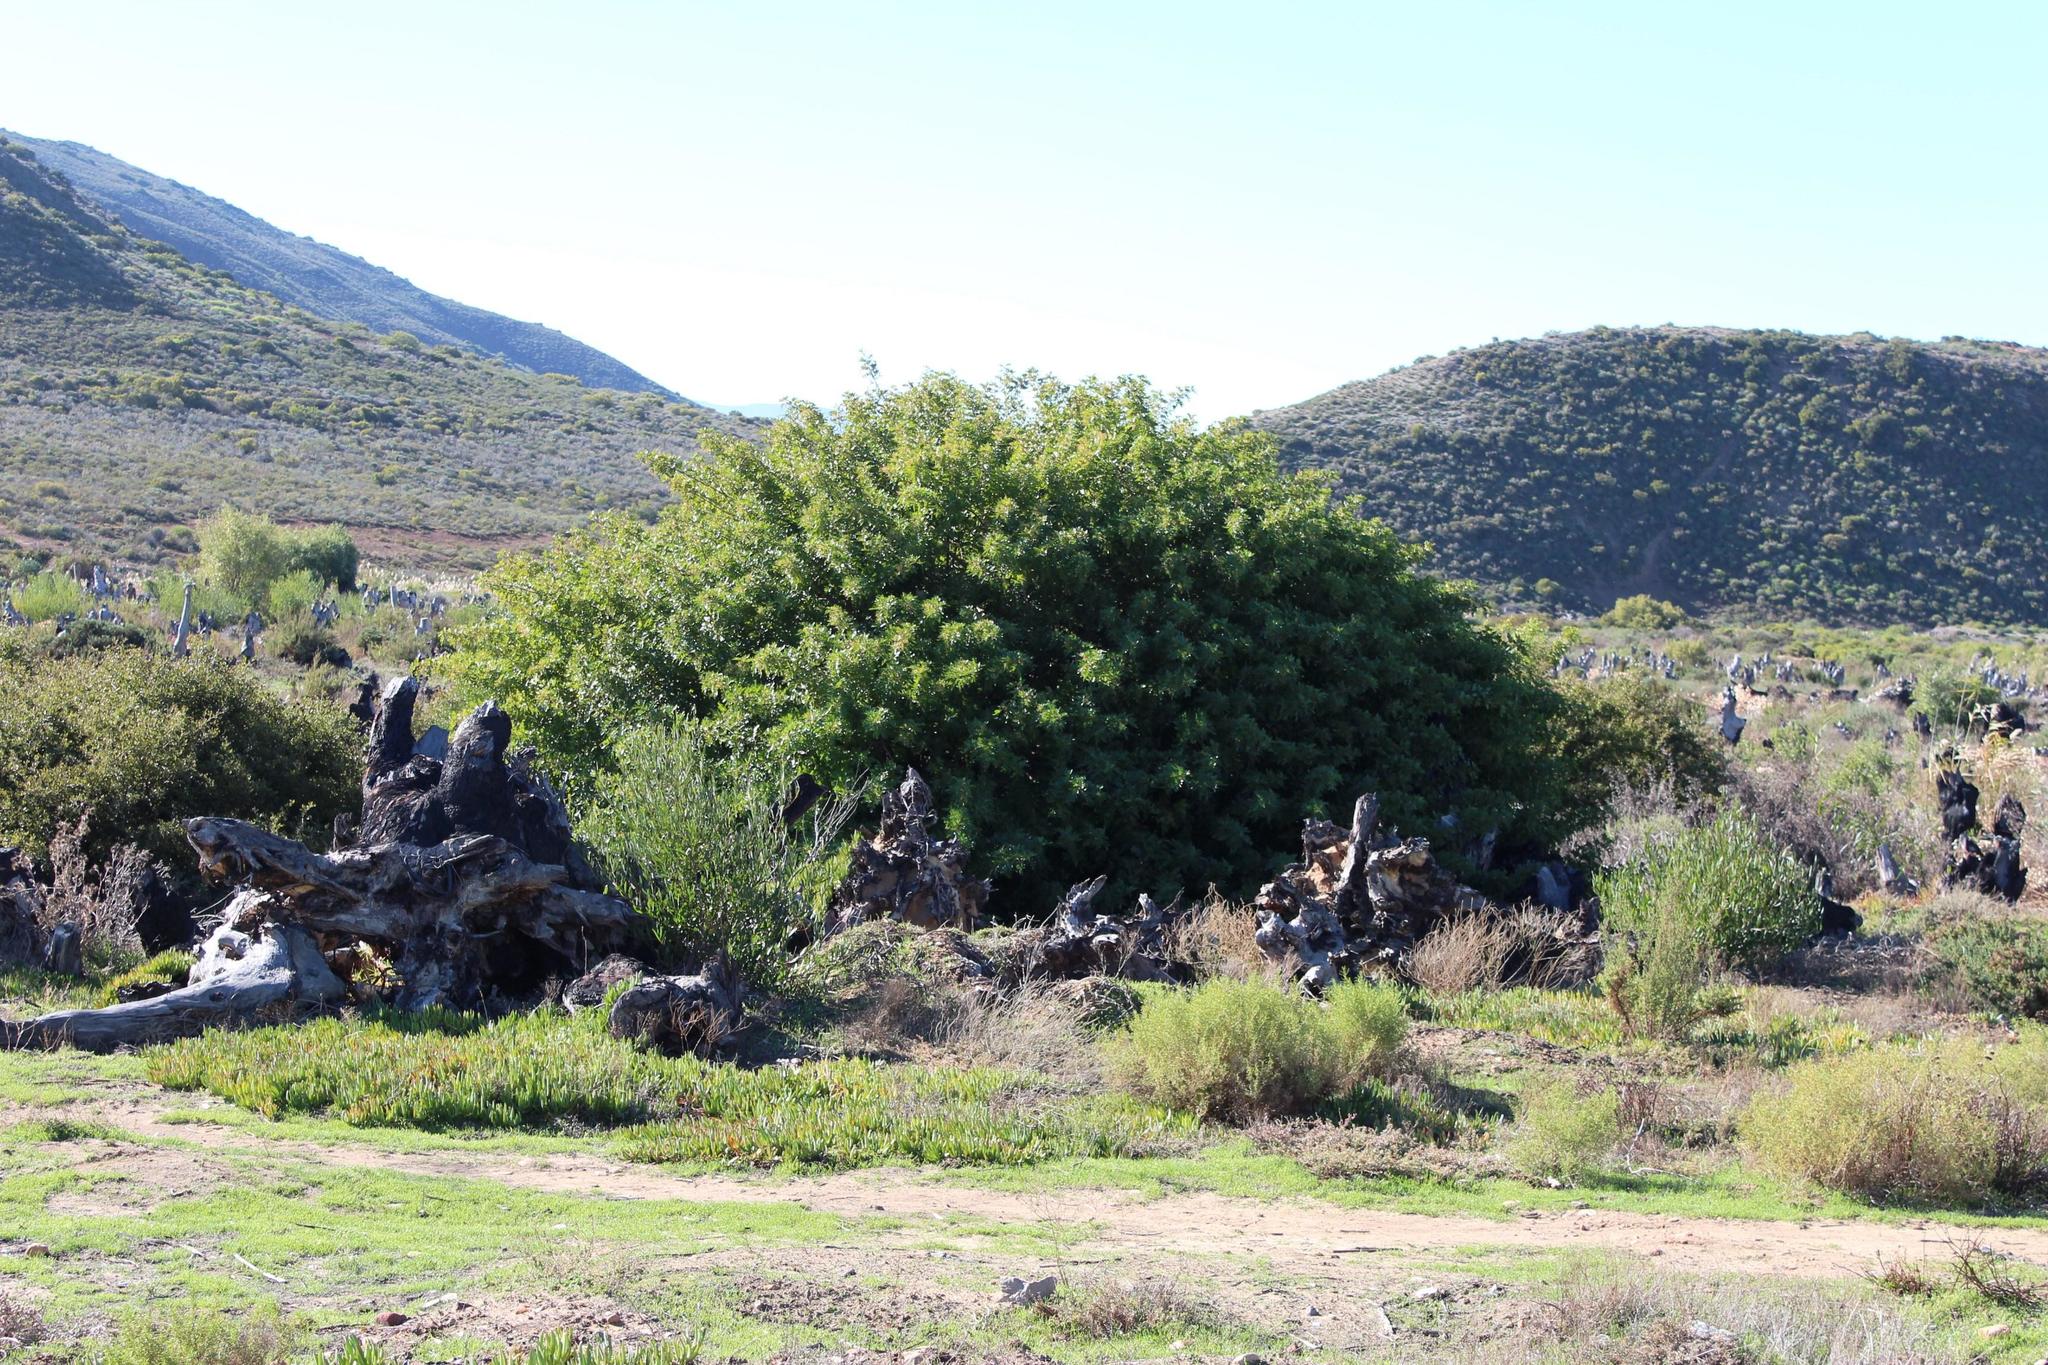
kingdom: Plantae
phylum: Tracheophyta
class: Magnoliopsida
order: Sapindales
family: Anacardiaceae
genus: Schinus
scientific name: Schinus terebinthifolia
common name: Brazilian peppertree
